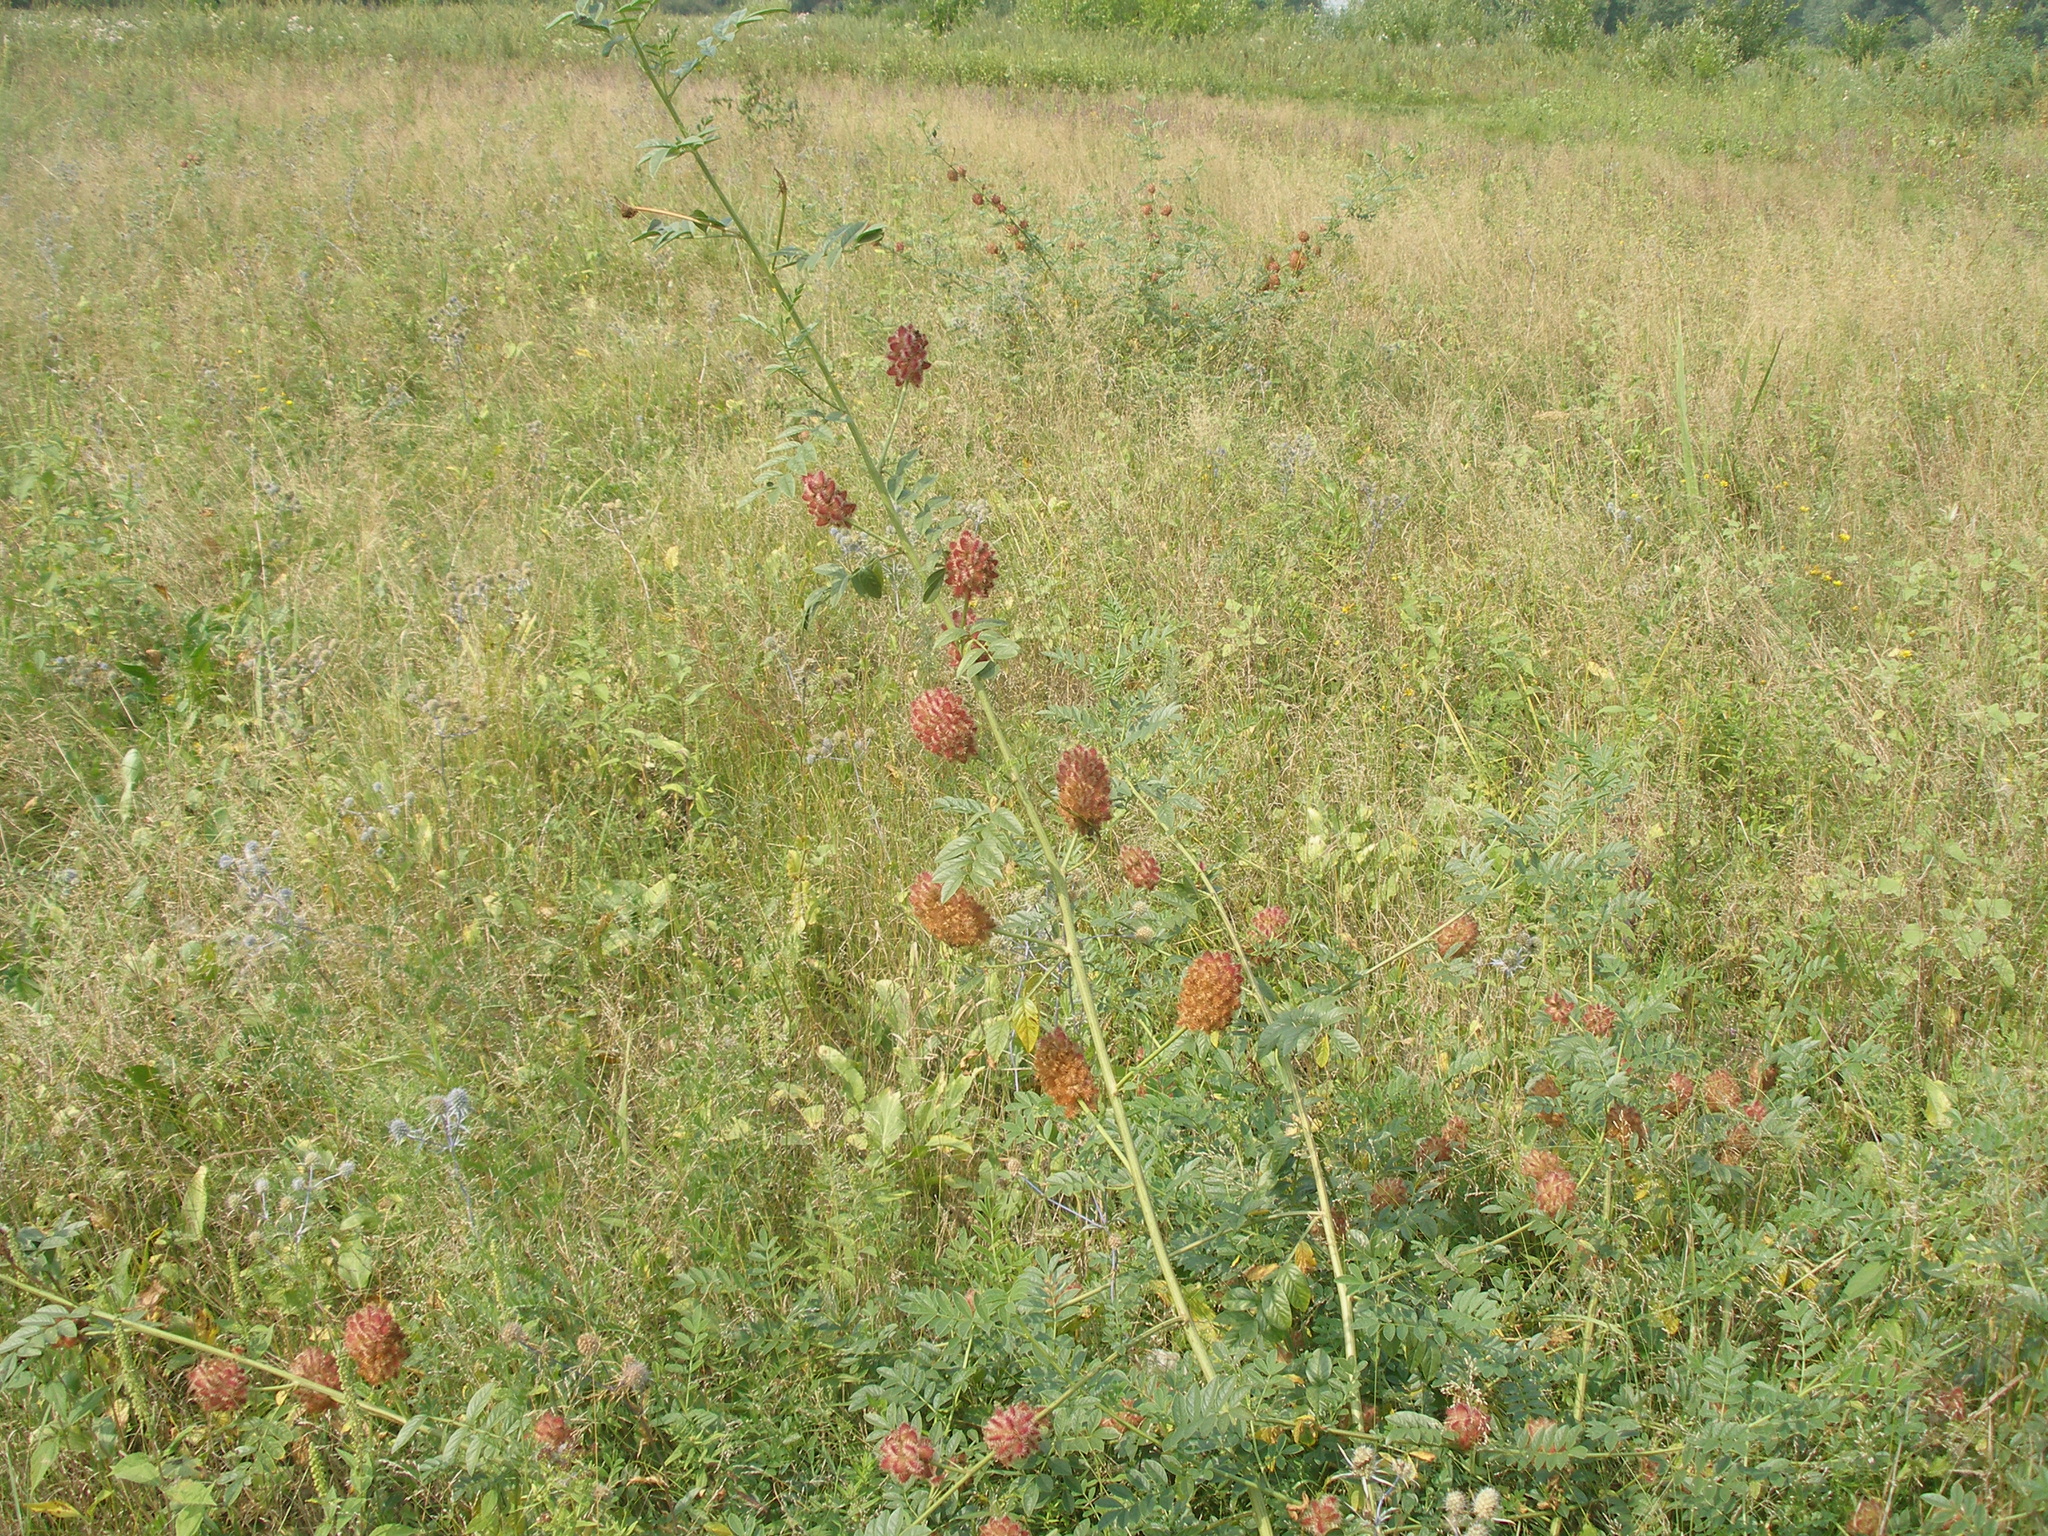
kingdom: Plantae
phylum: Tracheophyta
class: Magnoliopsida
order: Fabales
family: Fabaceae
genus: Glycyrrhiza
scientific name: Glycyrrhiza echinata
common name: German liquorice
